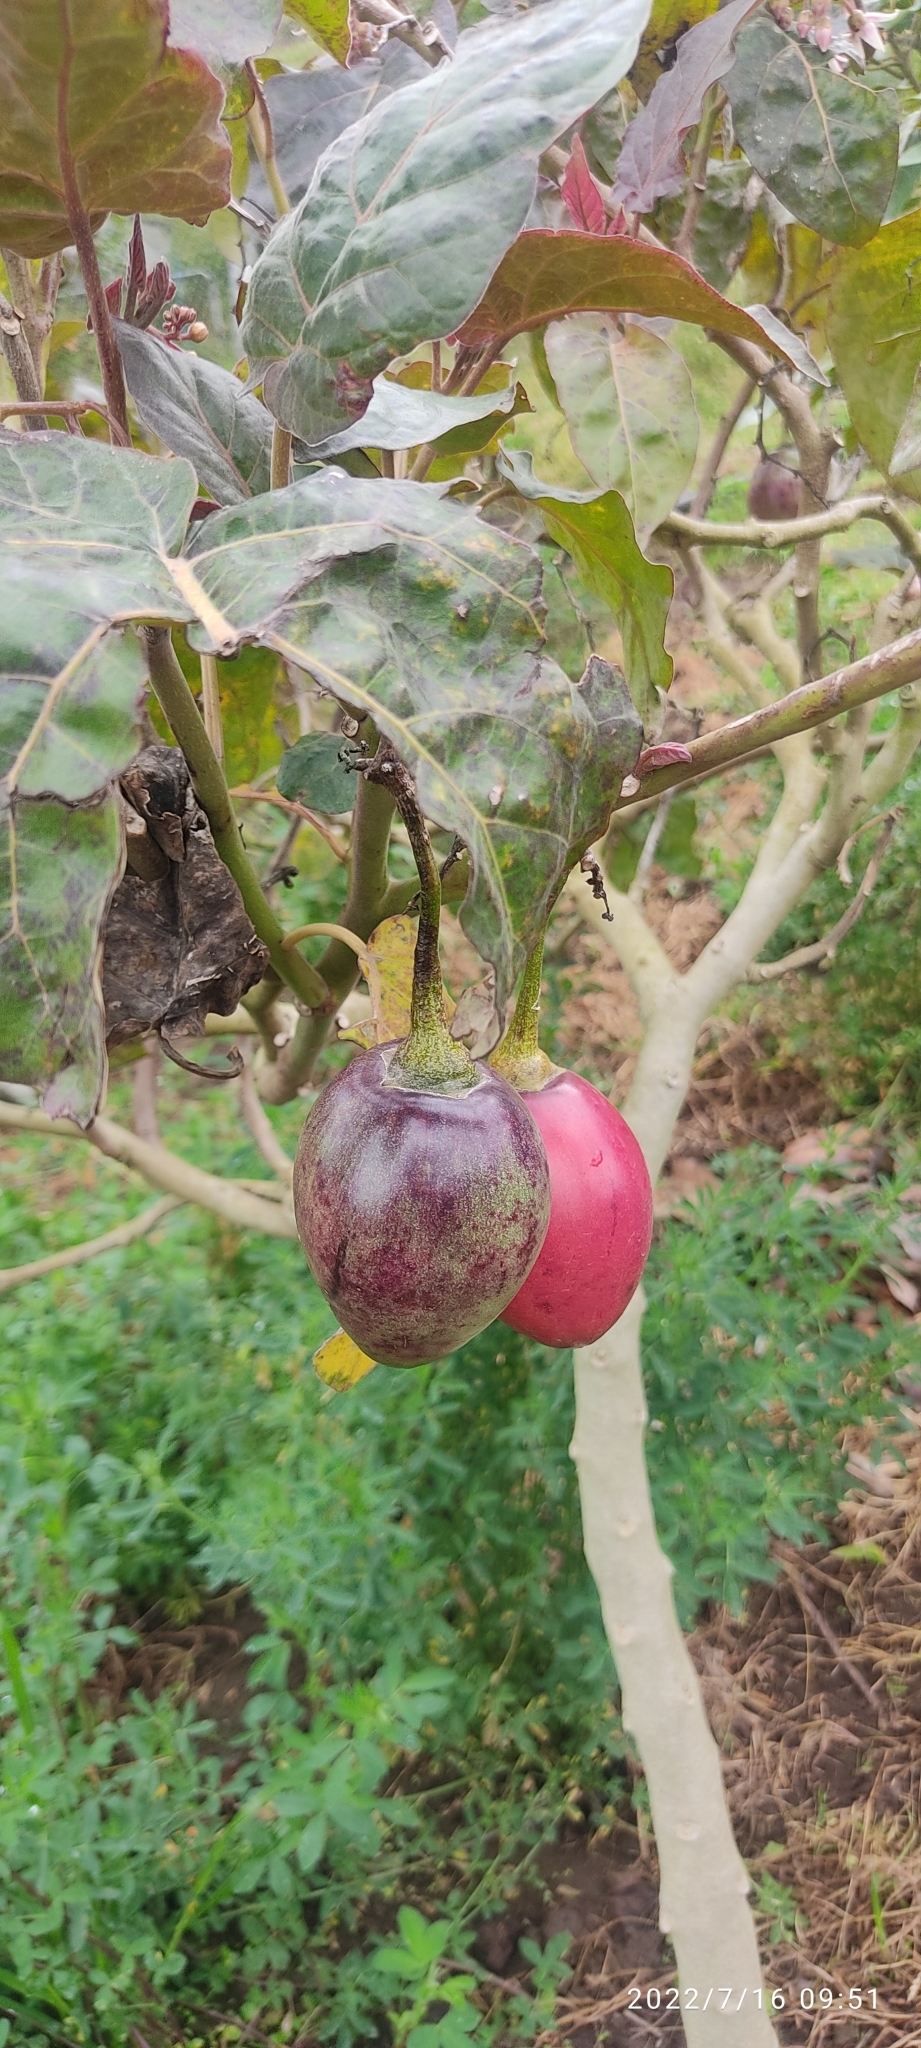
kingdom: Plantae
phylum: Tracheophyta
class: Magnoliopsida
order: Solanales
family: Solanaceae
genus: Solanum
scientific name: Solanum betaceum
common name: Tamarillo
